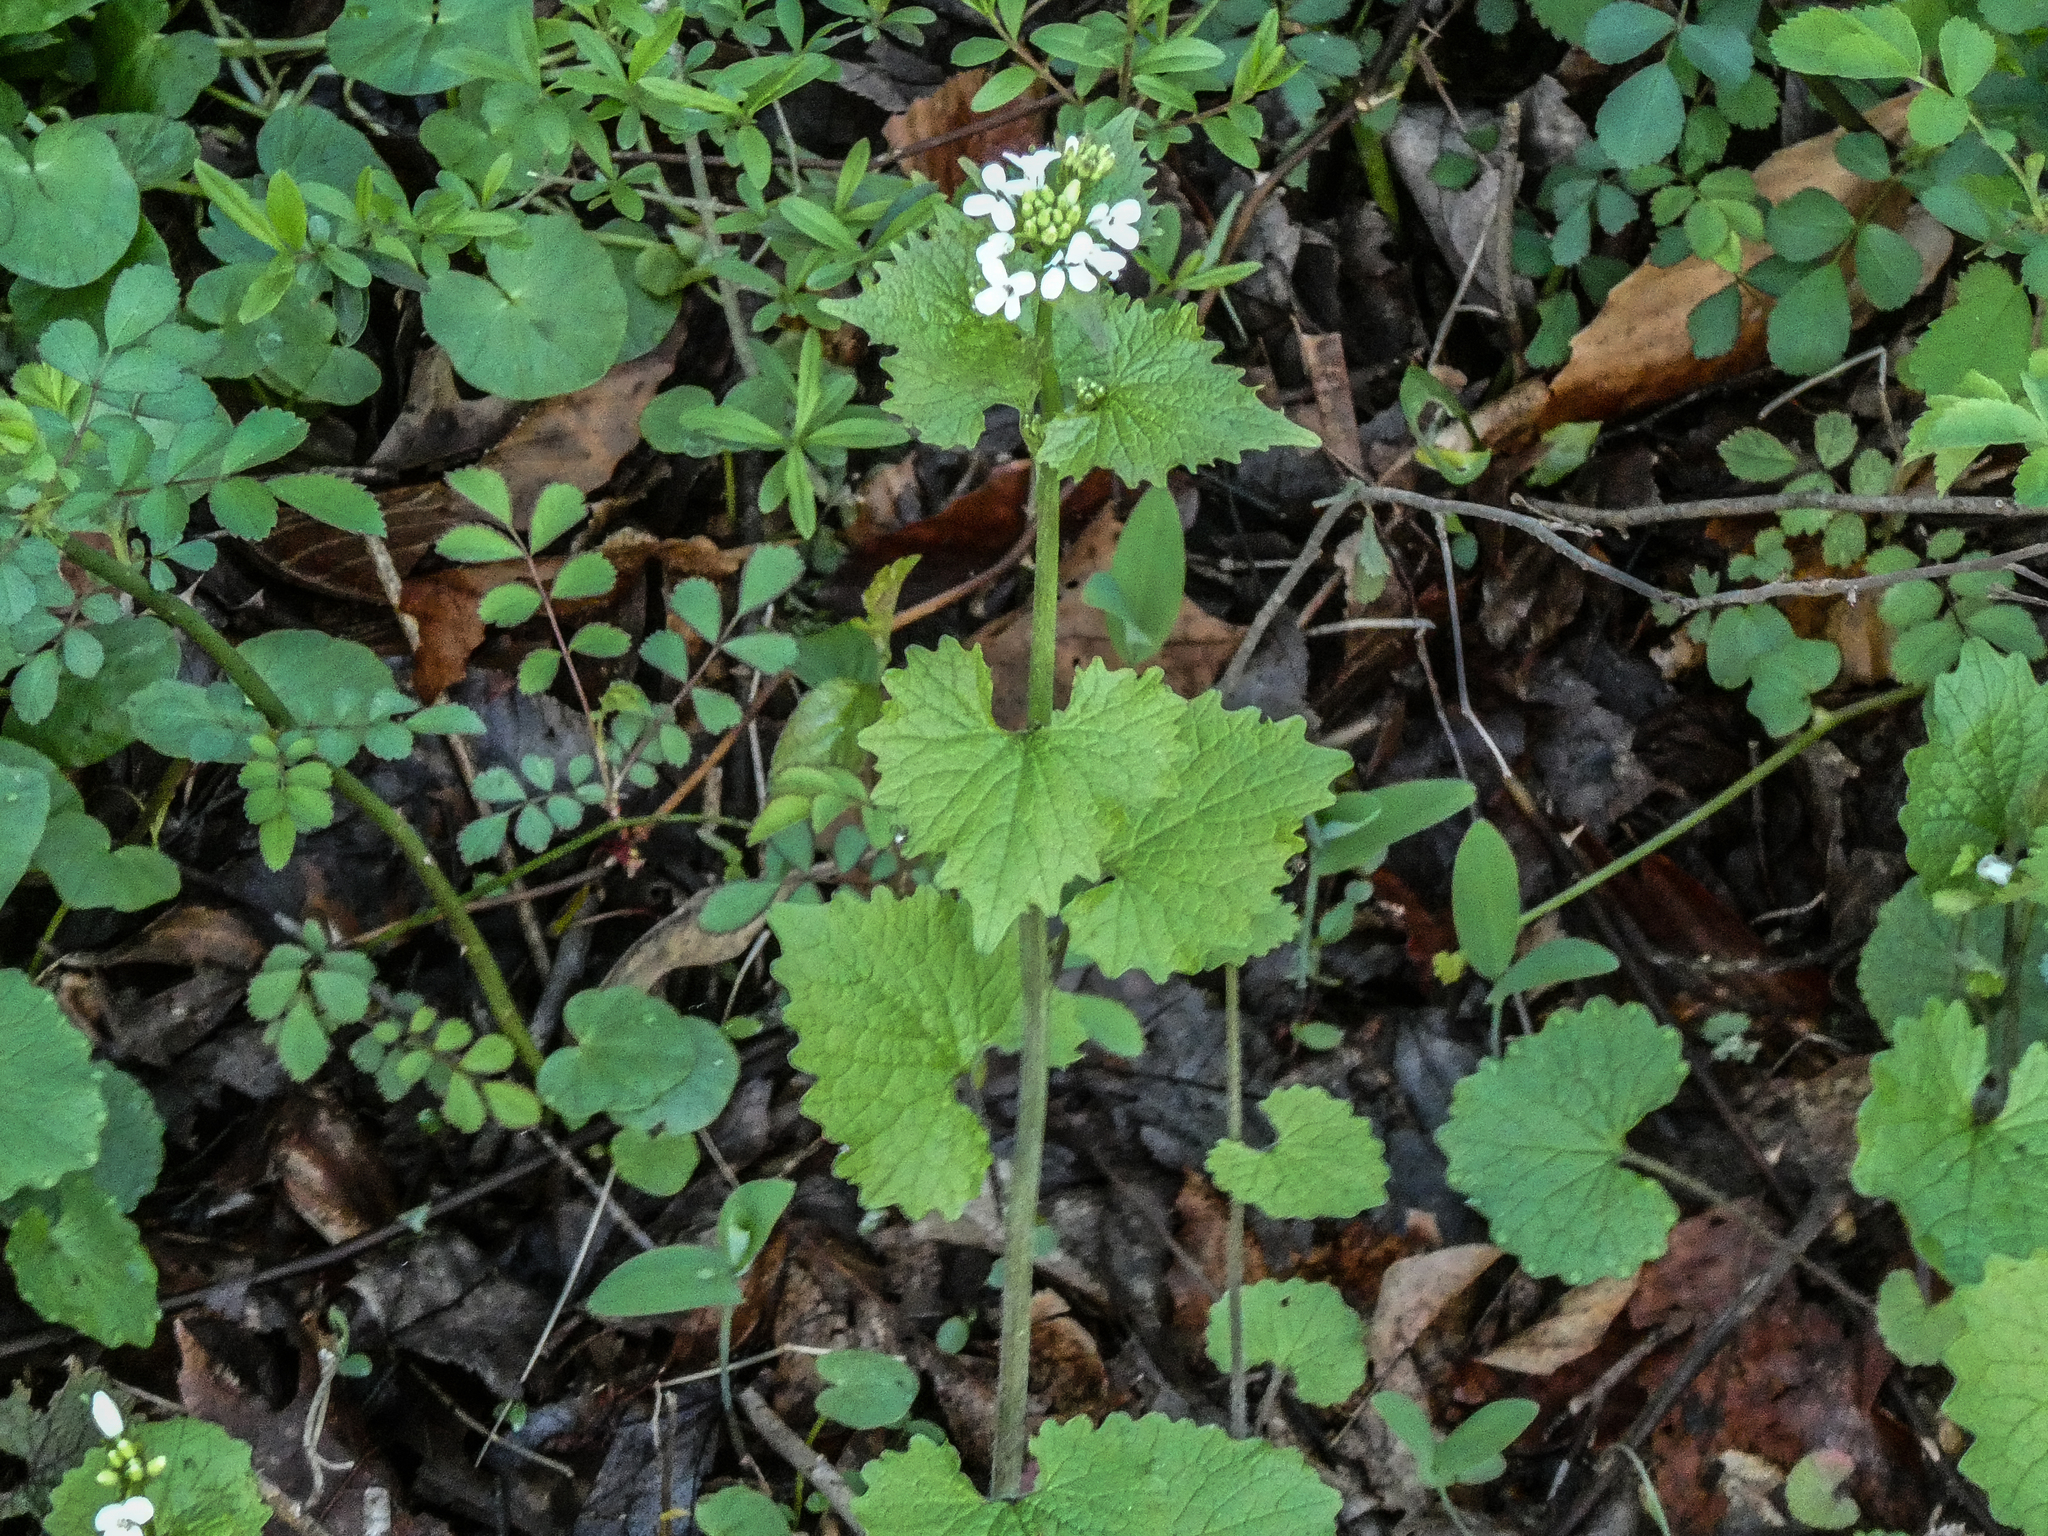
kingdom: Plantae
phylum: Tracheophyta
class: Magnoliopsida
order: Brassicales
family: Brassicaceae
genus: Alliaria
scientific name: Alliaria petiolata
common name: Garlic mustard
